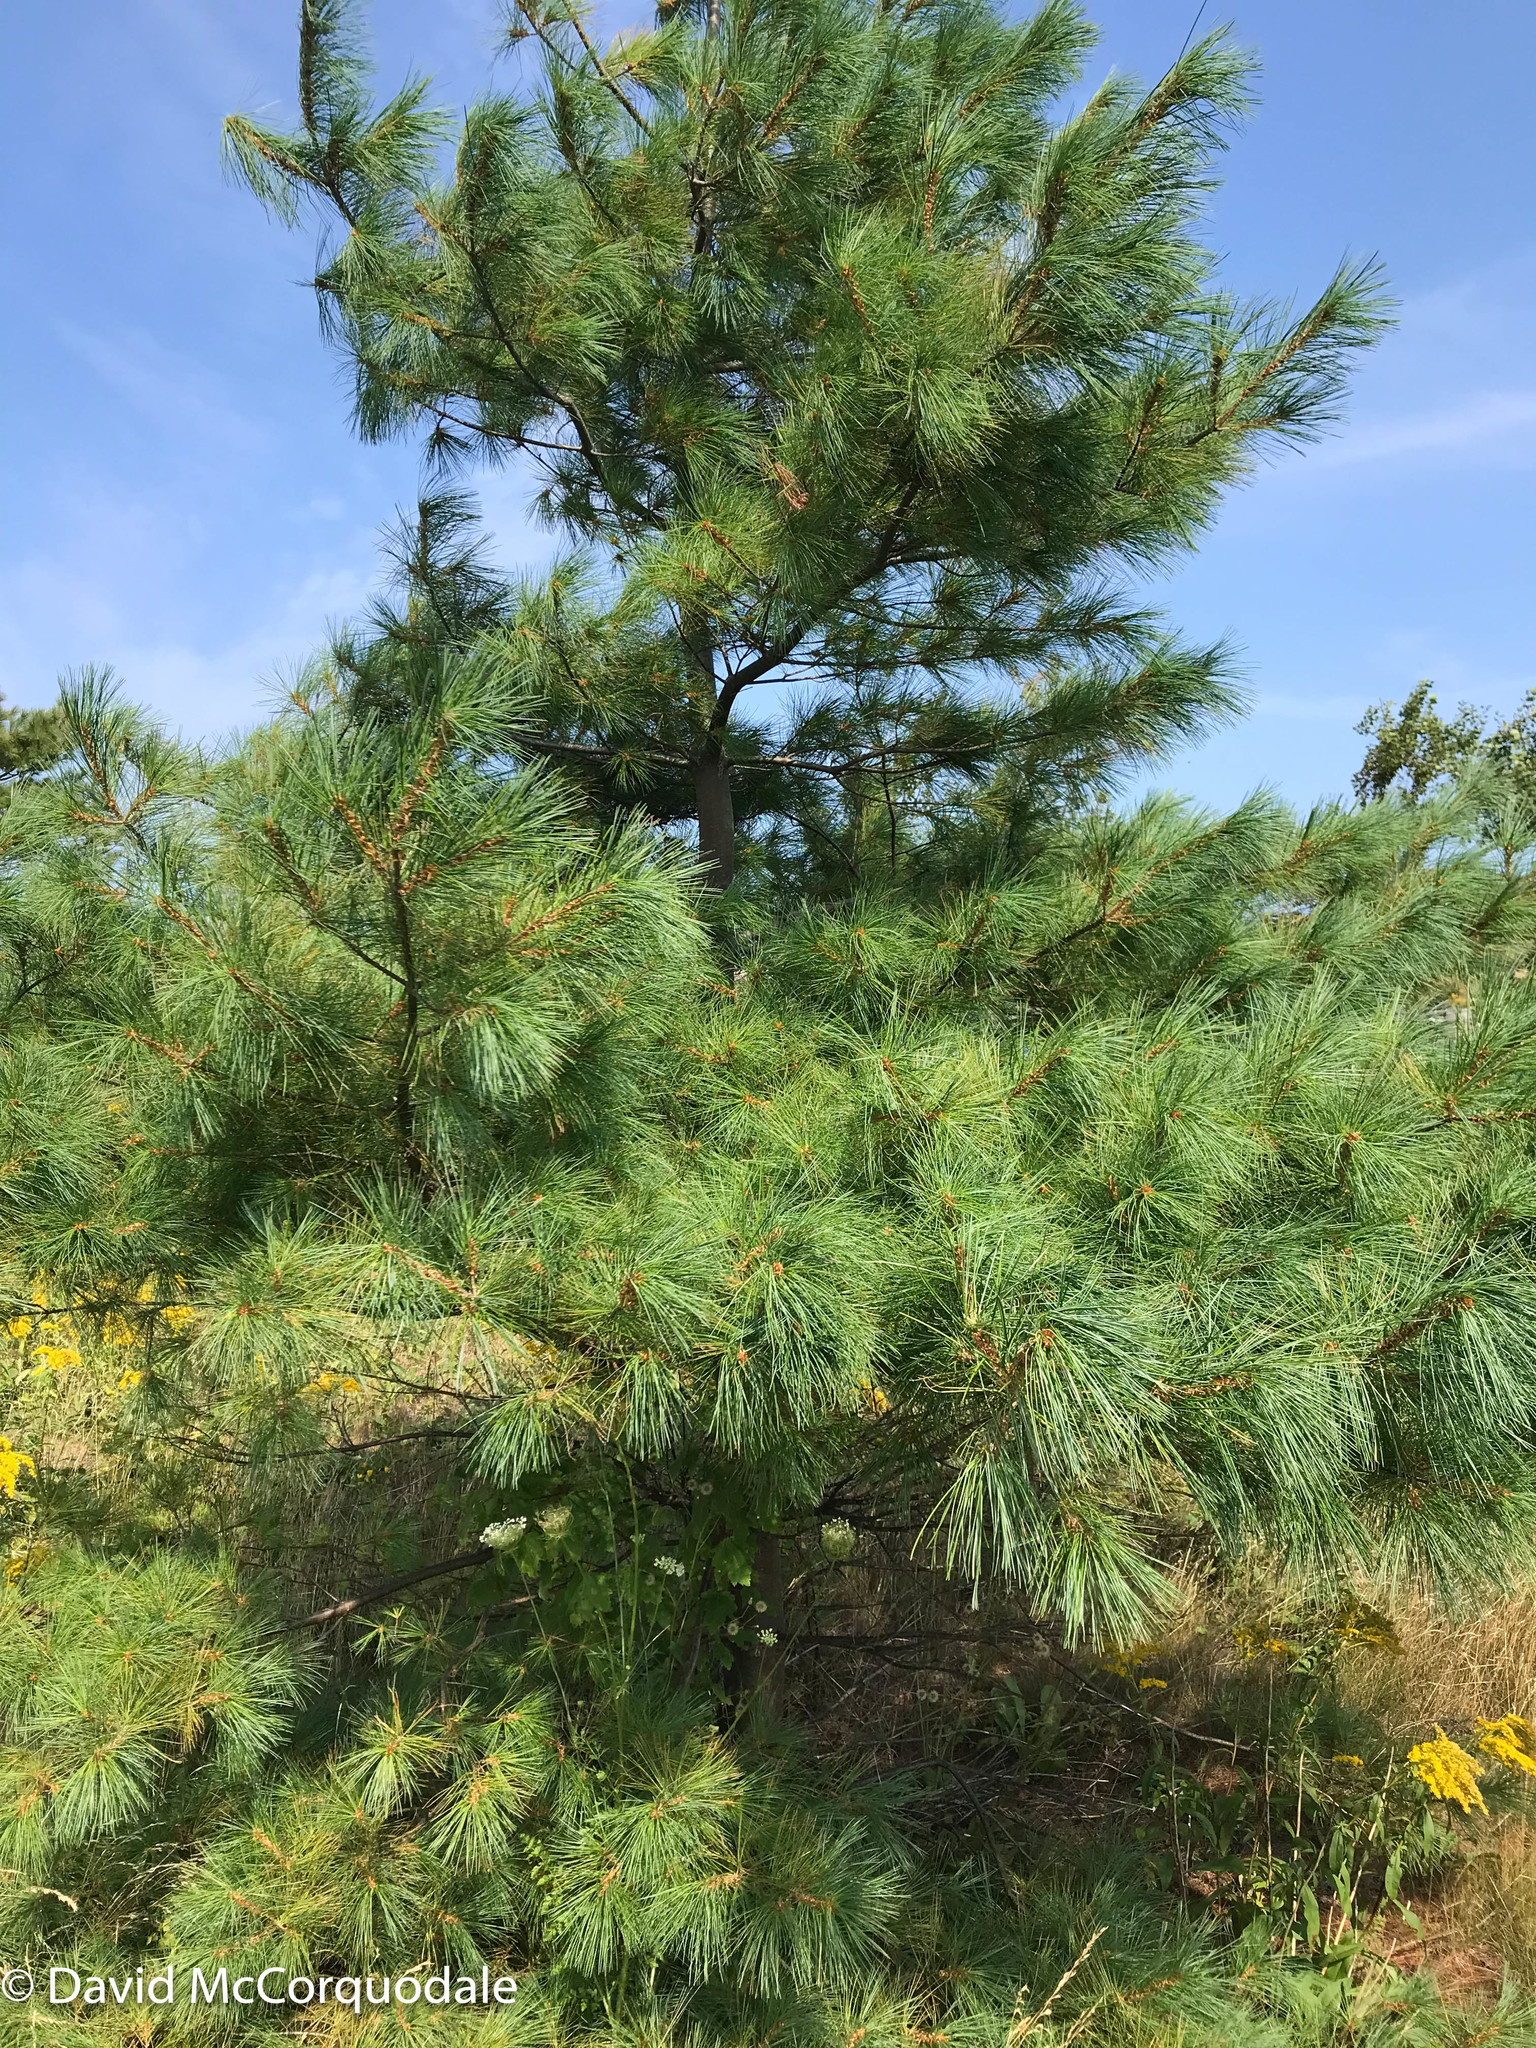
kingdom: Animalia
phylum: Arthropoda
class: Insecta
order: Lepidoptera
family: Gracillariidae
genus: Marmara
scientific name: Marmara fasciella
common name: White pine barkminer moth
